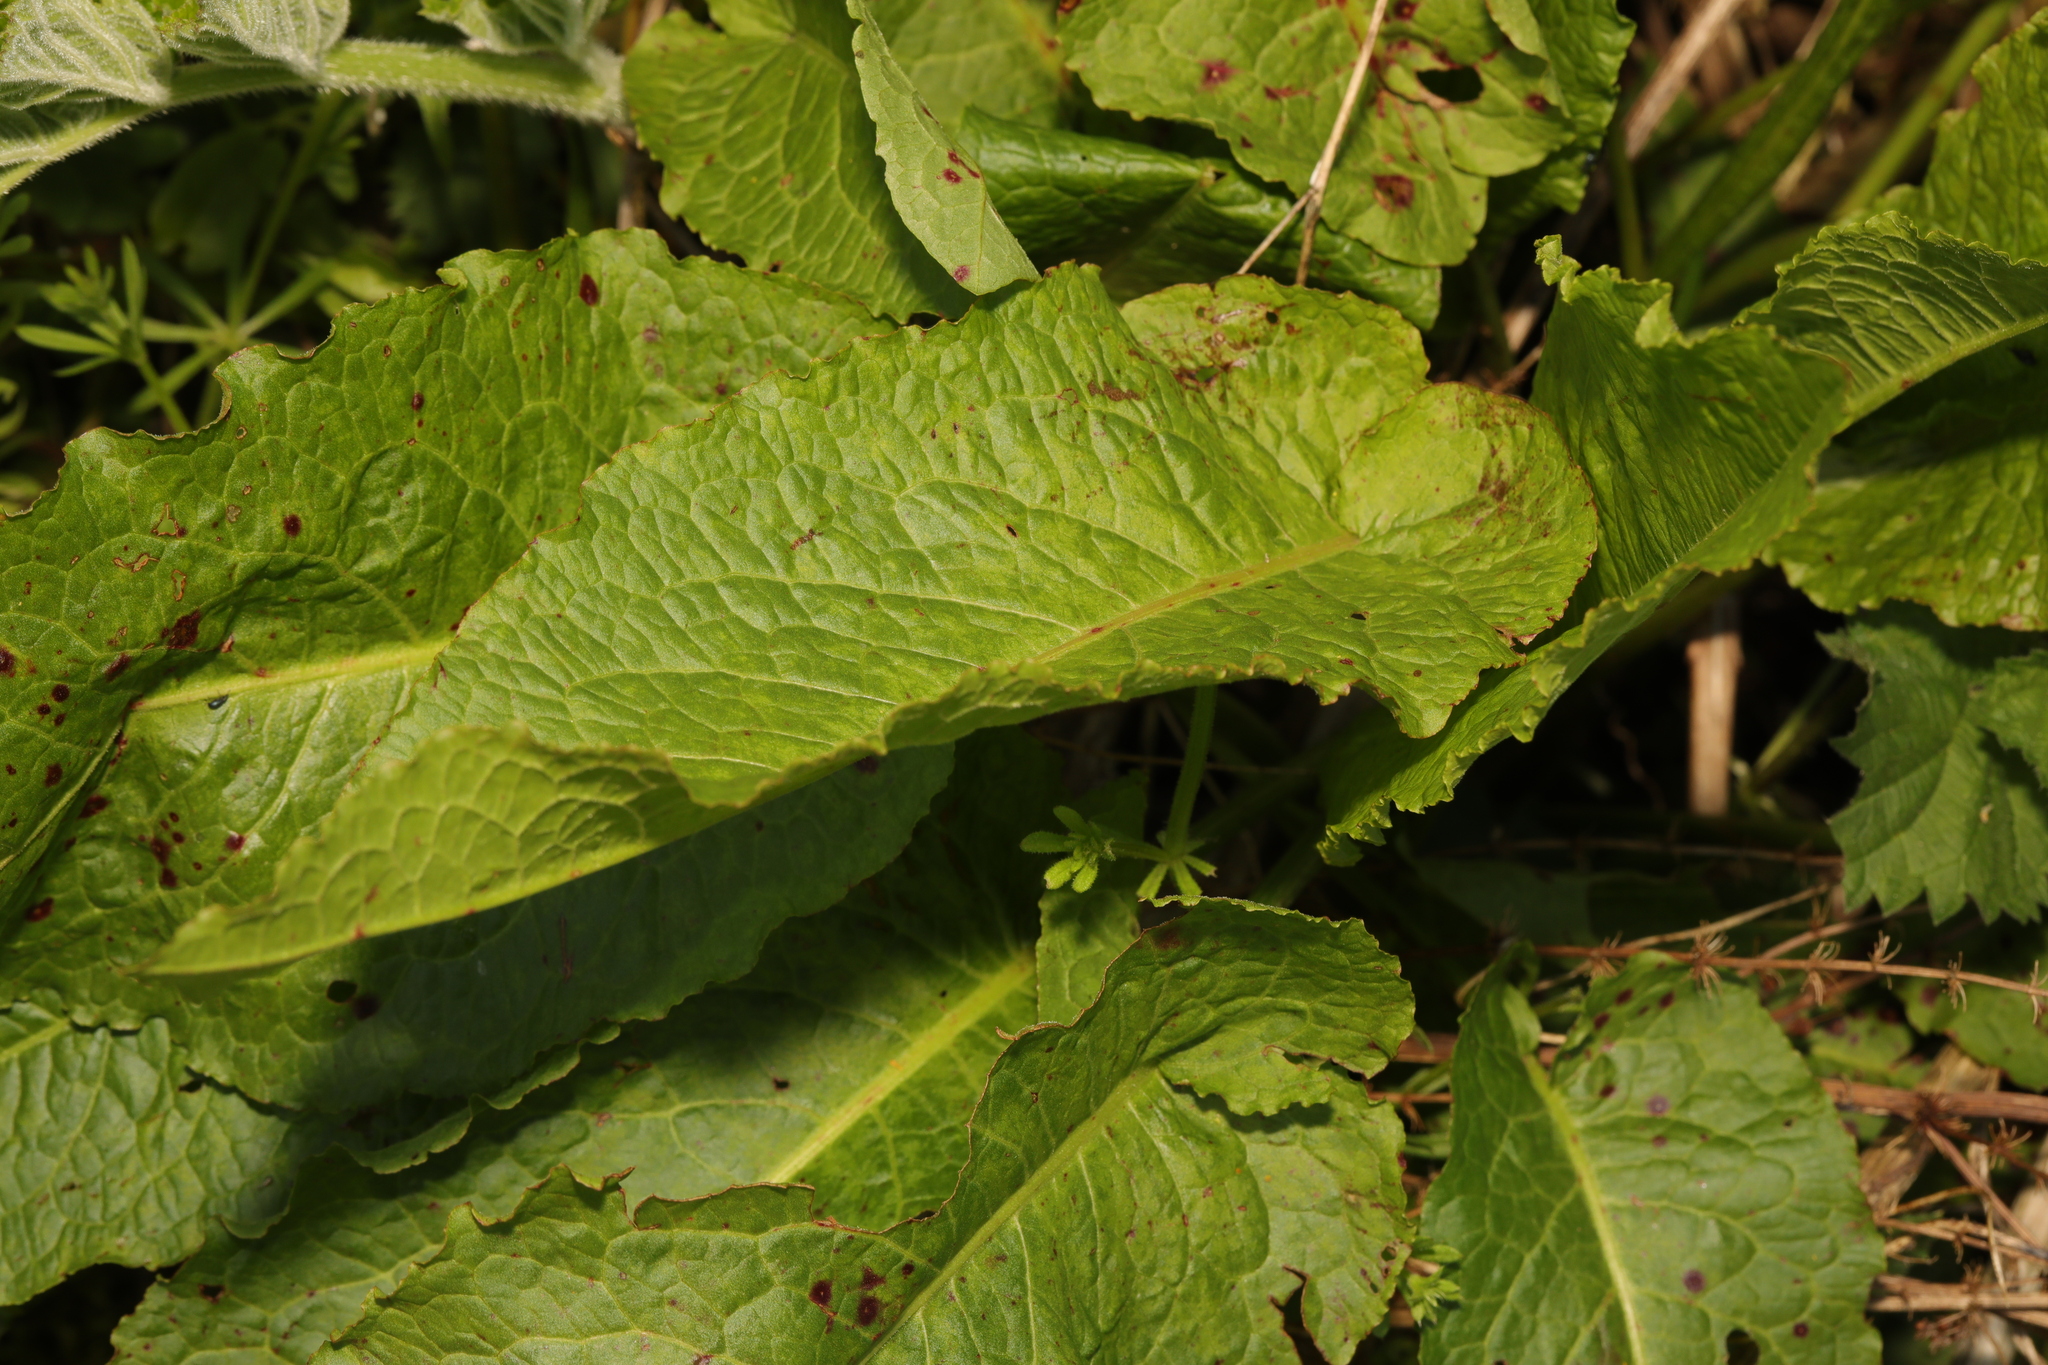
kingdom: Plantae
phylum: Tracheophyta
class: Magnoliopsida
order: Caryophyllales
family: Polygonaceae
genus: Rumex
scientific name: Rumex obtusifolius
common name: Bitter dock
